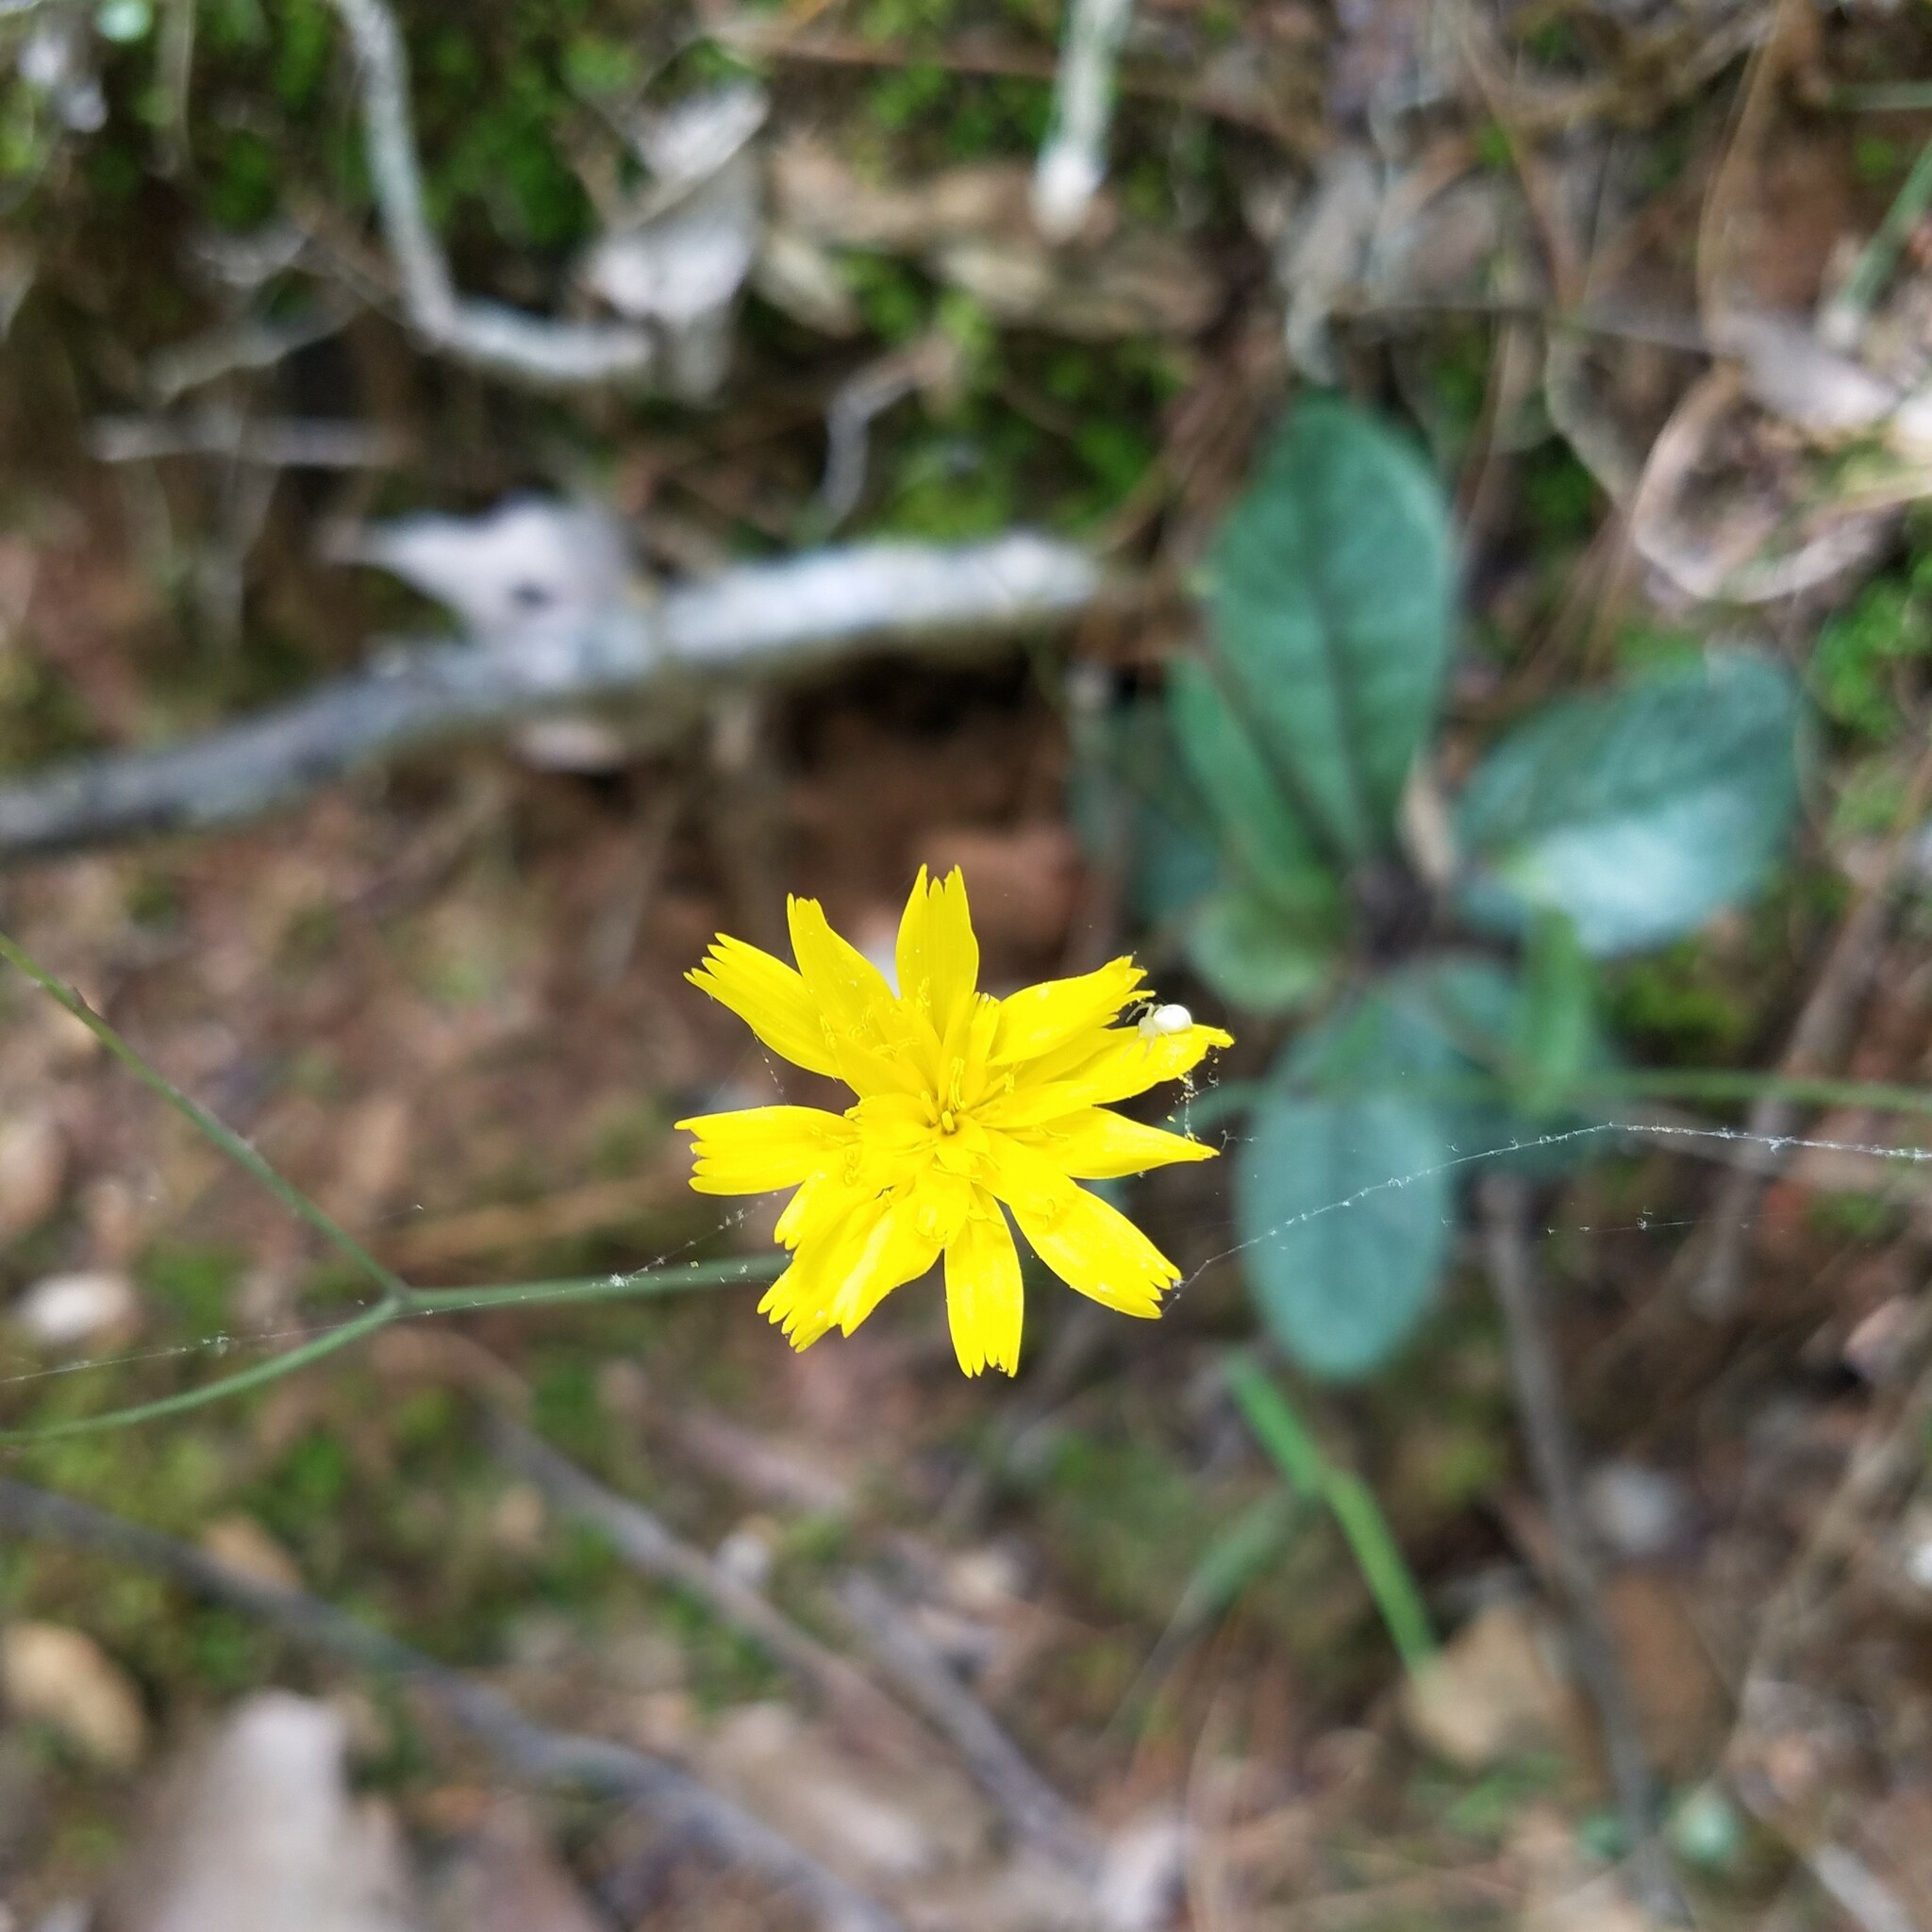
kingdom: Plantae
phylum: Tracheophyta
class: Magnoliopsida
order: Asterales
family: Asteraceae
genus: Hieracium
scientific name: Hieracium venosum
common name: Rattlesnake hawkweed
